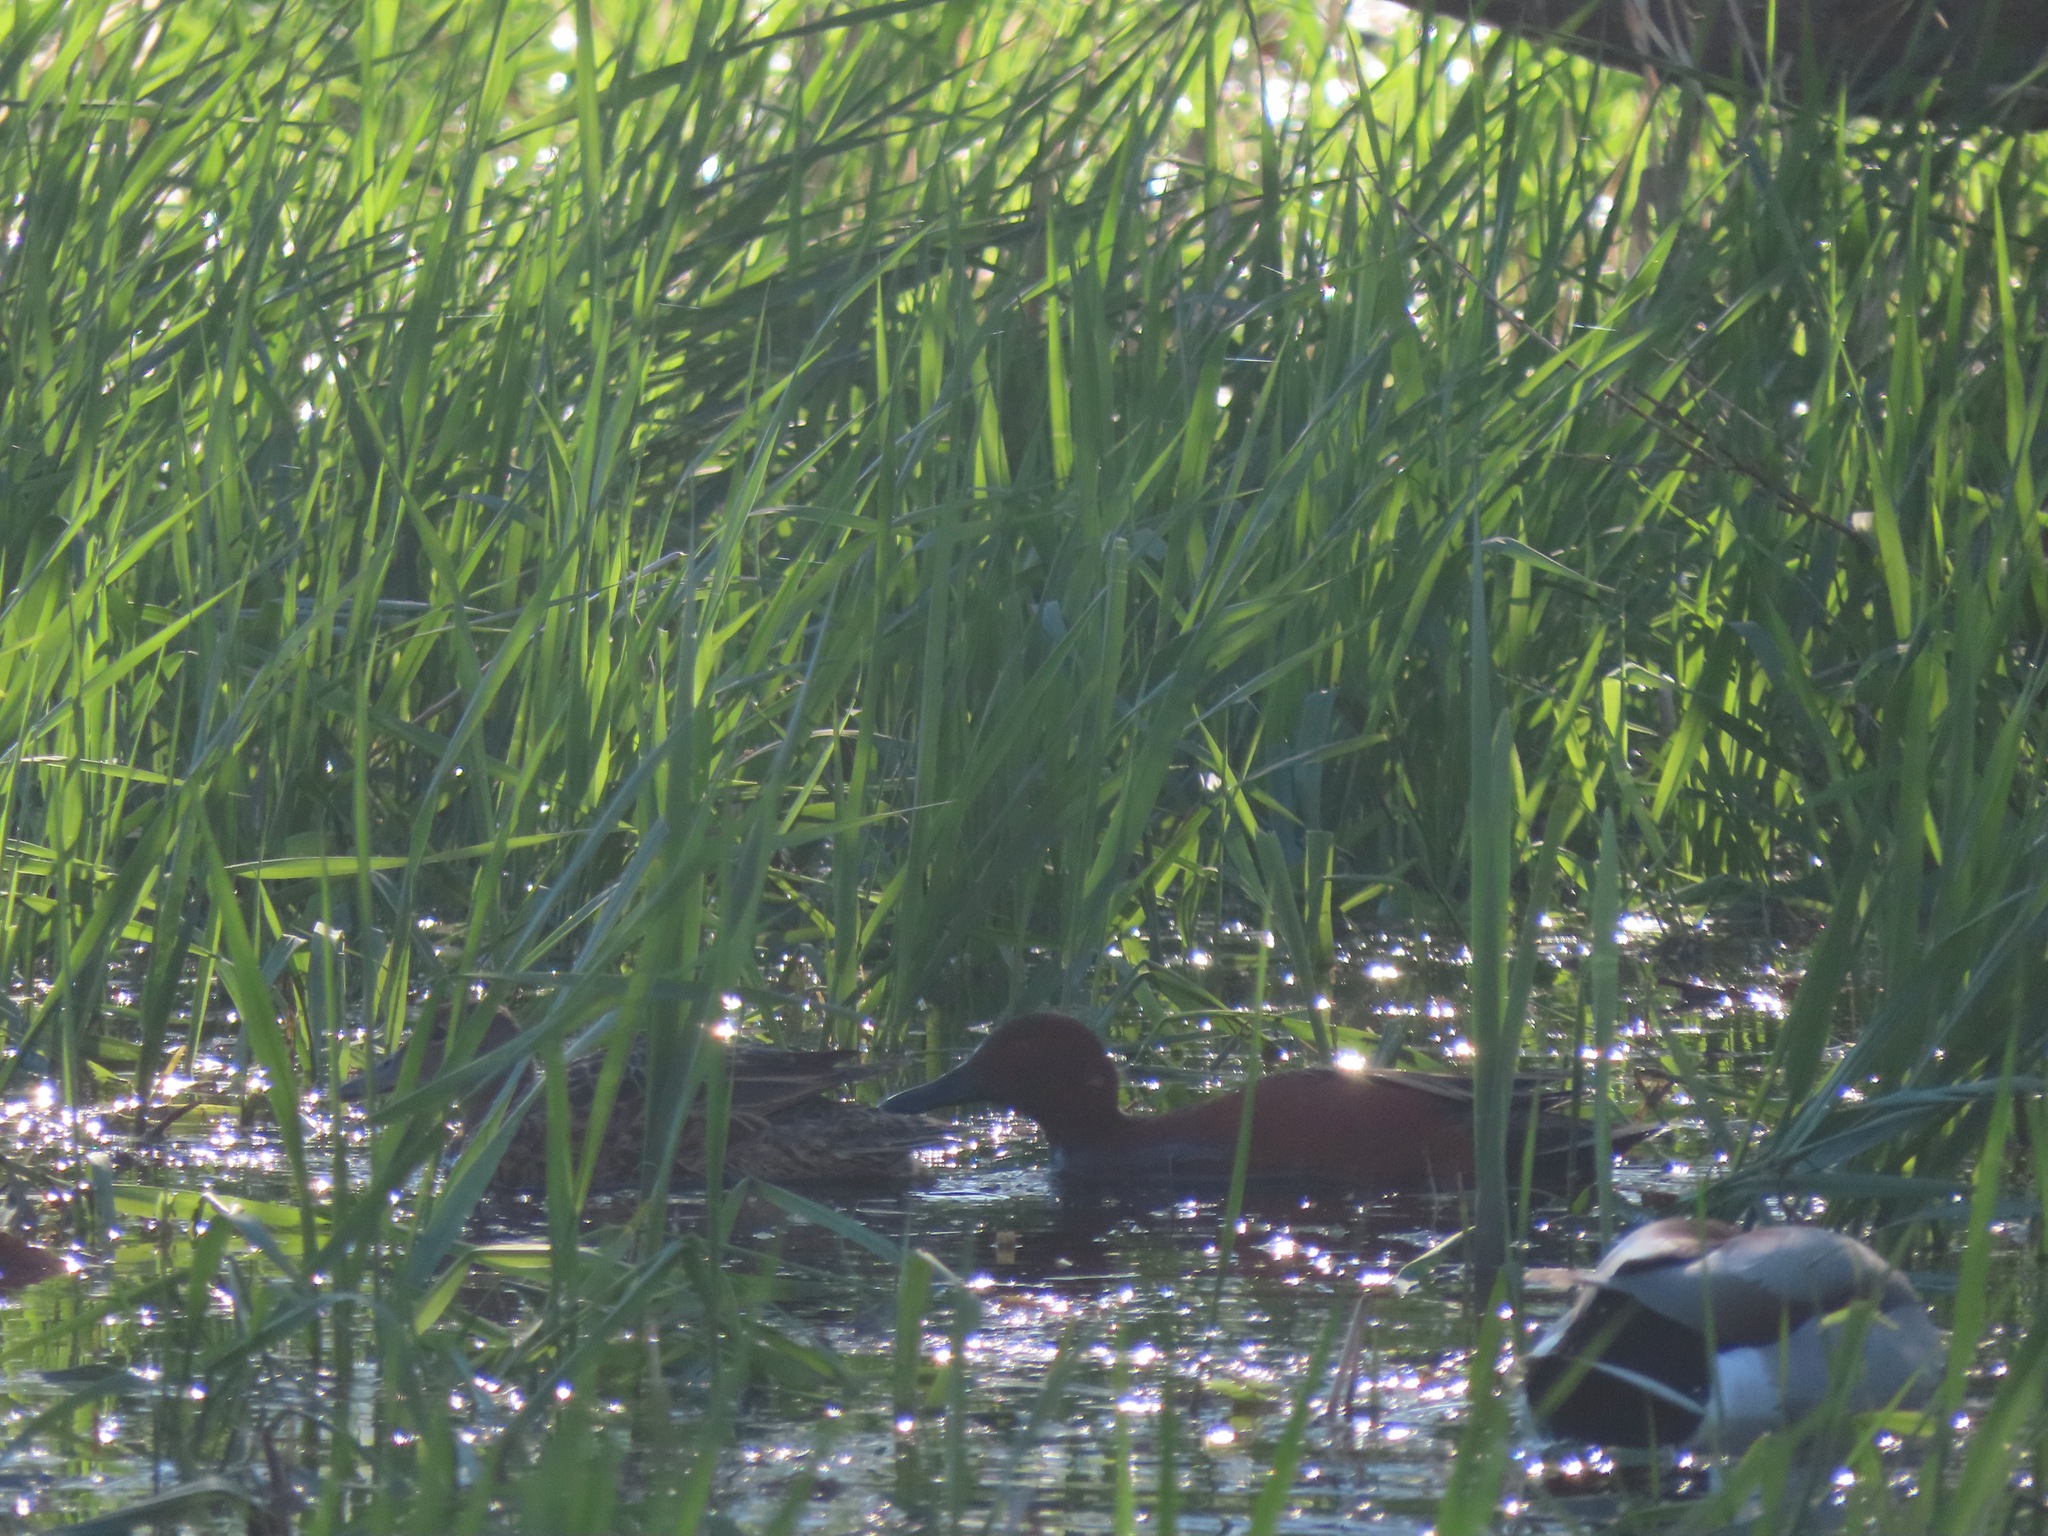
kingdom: Animalia
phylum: Chordata
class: Aves
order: Anseriformes
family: Anatidae
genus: Spatula
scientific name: Spatula cyanoptera
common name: Cinnamon teal
